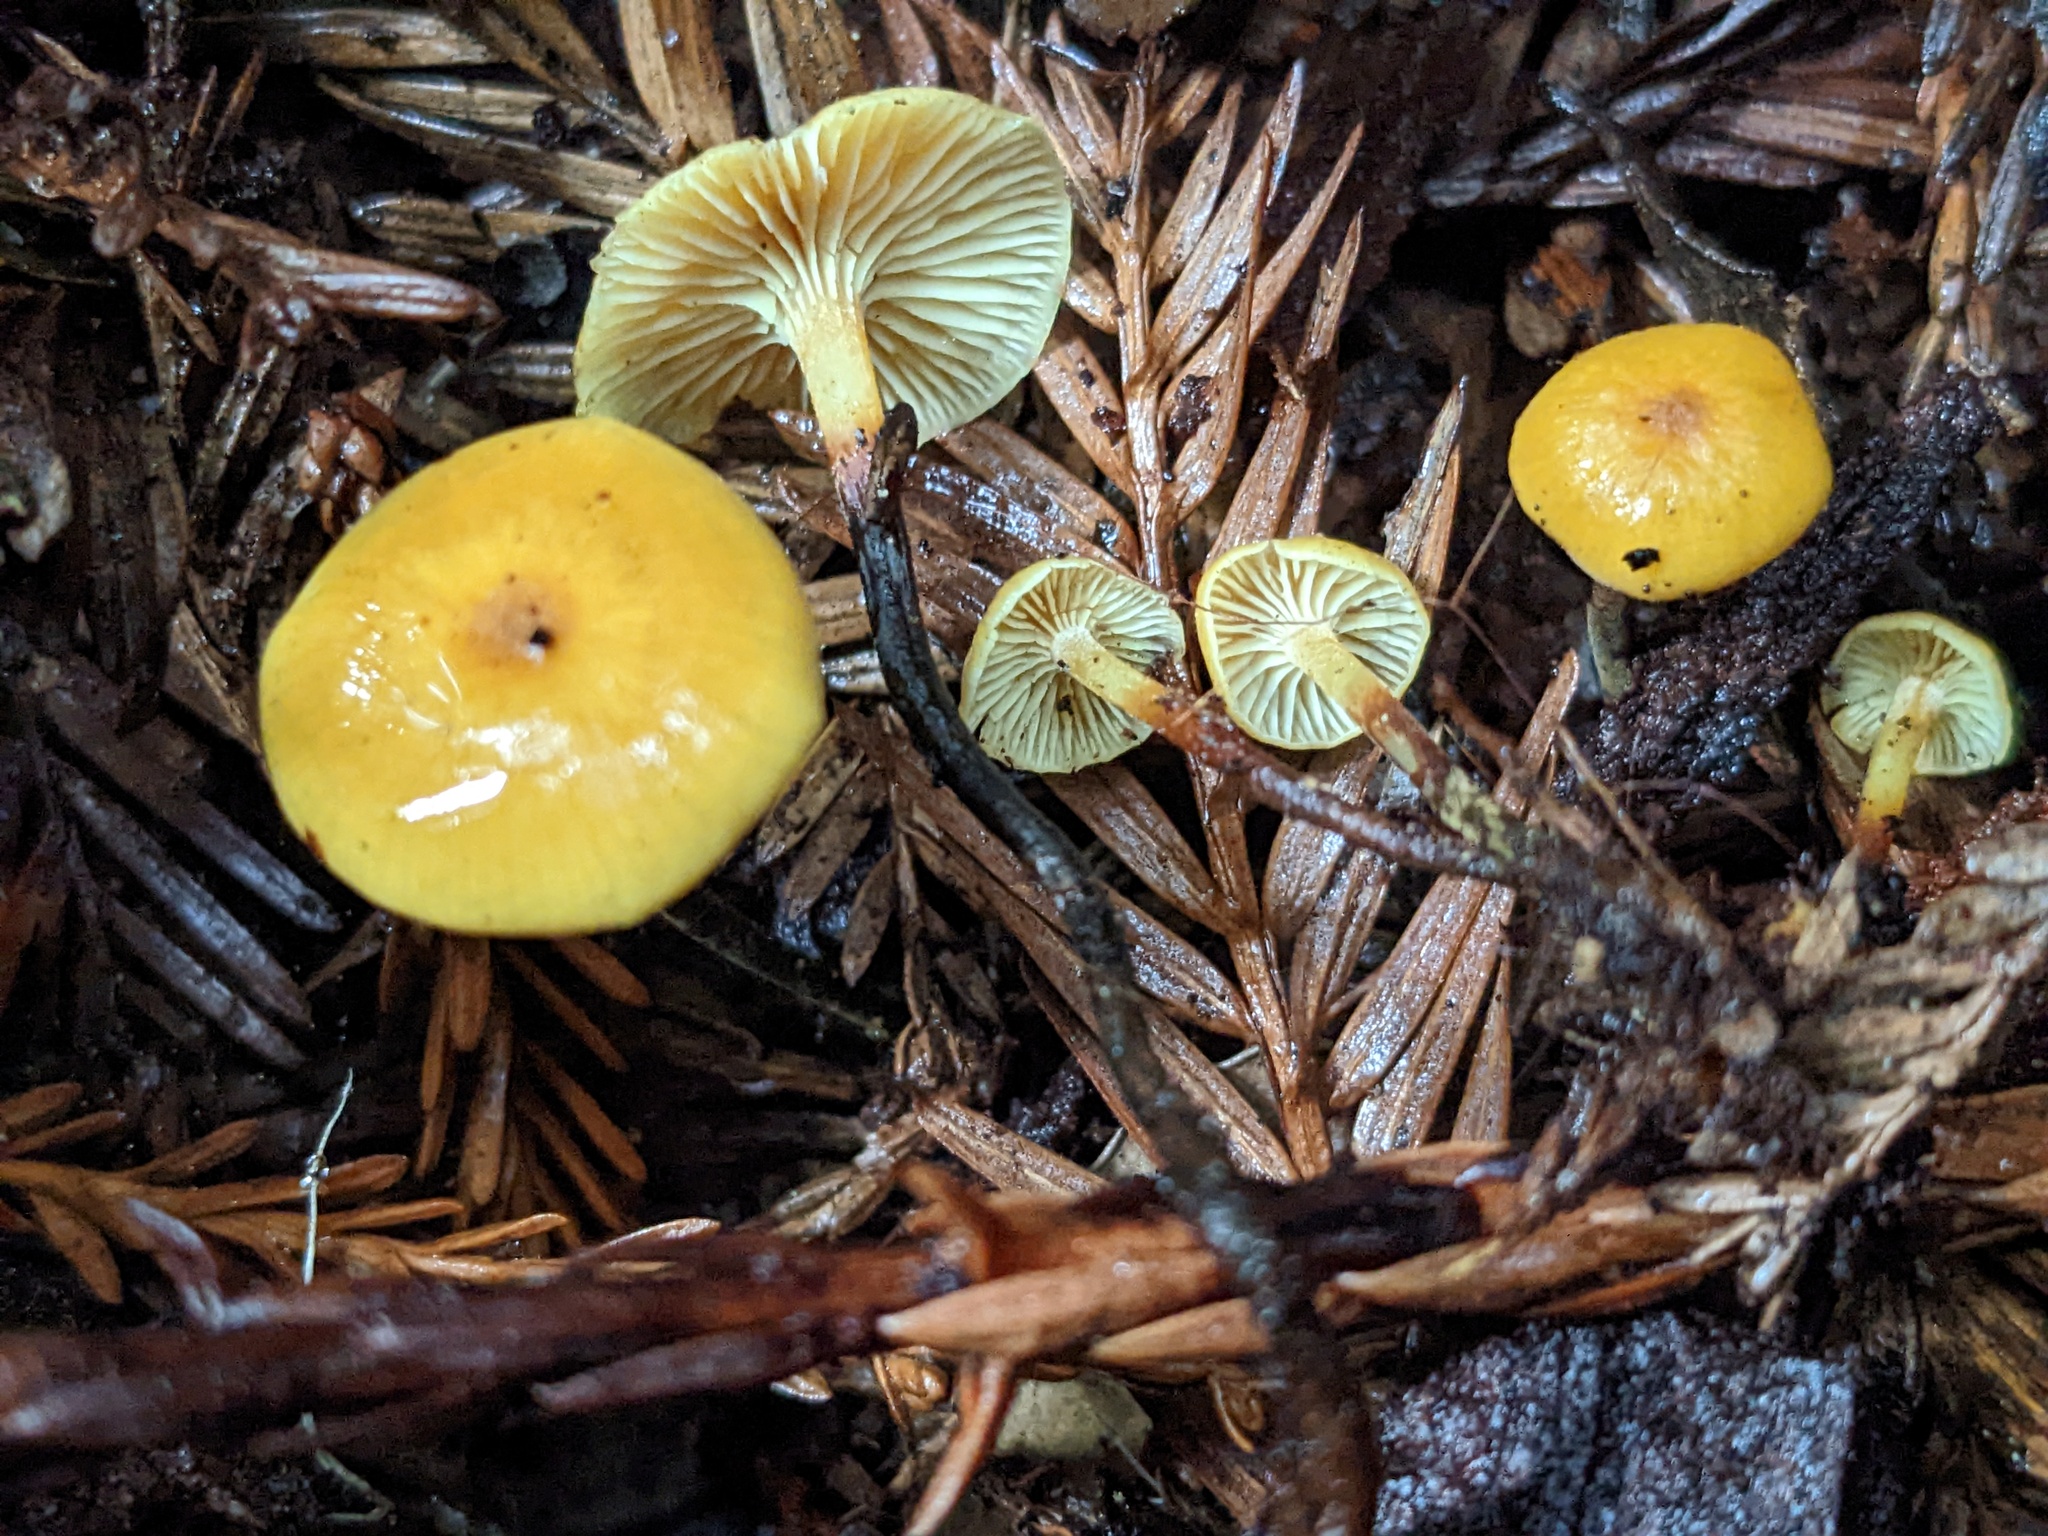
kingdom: Fungi
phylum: Basidiomycota
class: Agaricomycetes
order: Agaricales
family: Mycenaceae
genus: Xeromphalina
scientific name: Xeromphalina cauticinalis
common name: Pinelitter gingertail
